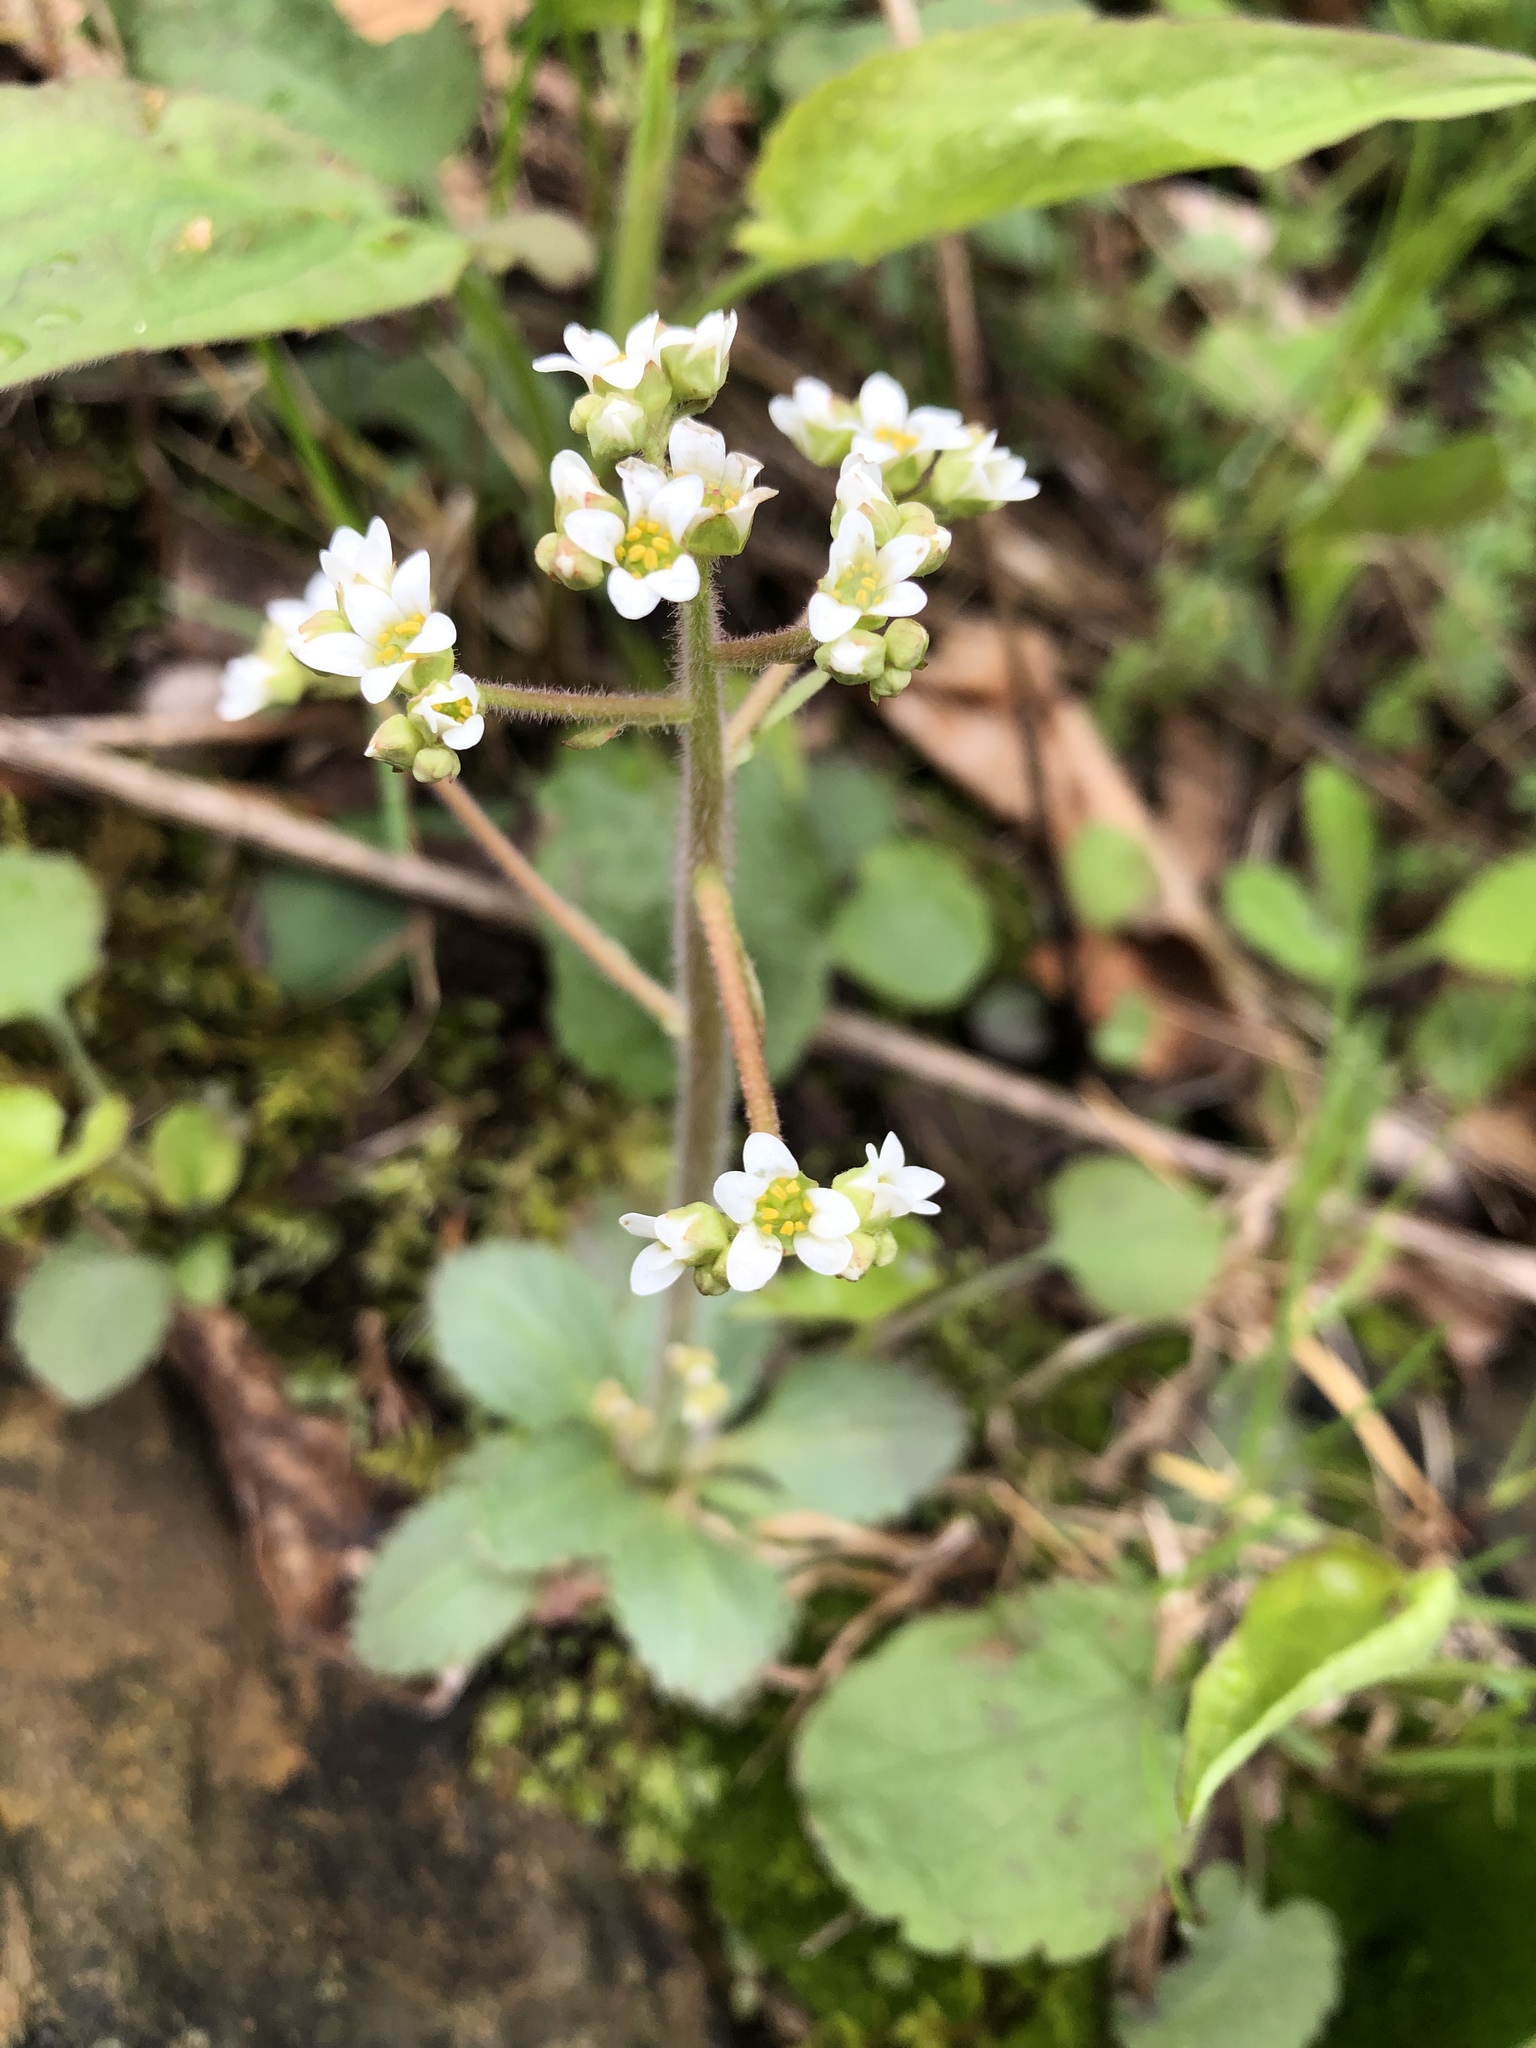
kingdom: Plantae
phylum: Tracheophyta
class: Magnoliopsida
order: Saxifragales
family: Saxifragaceae
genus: Micranthes
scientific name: Micranthes virginiensis
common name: Early saxifrage
